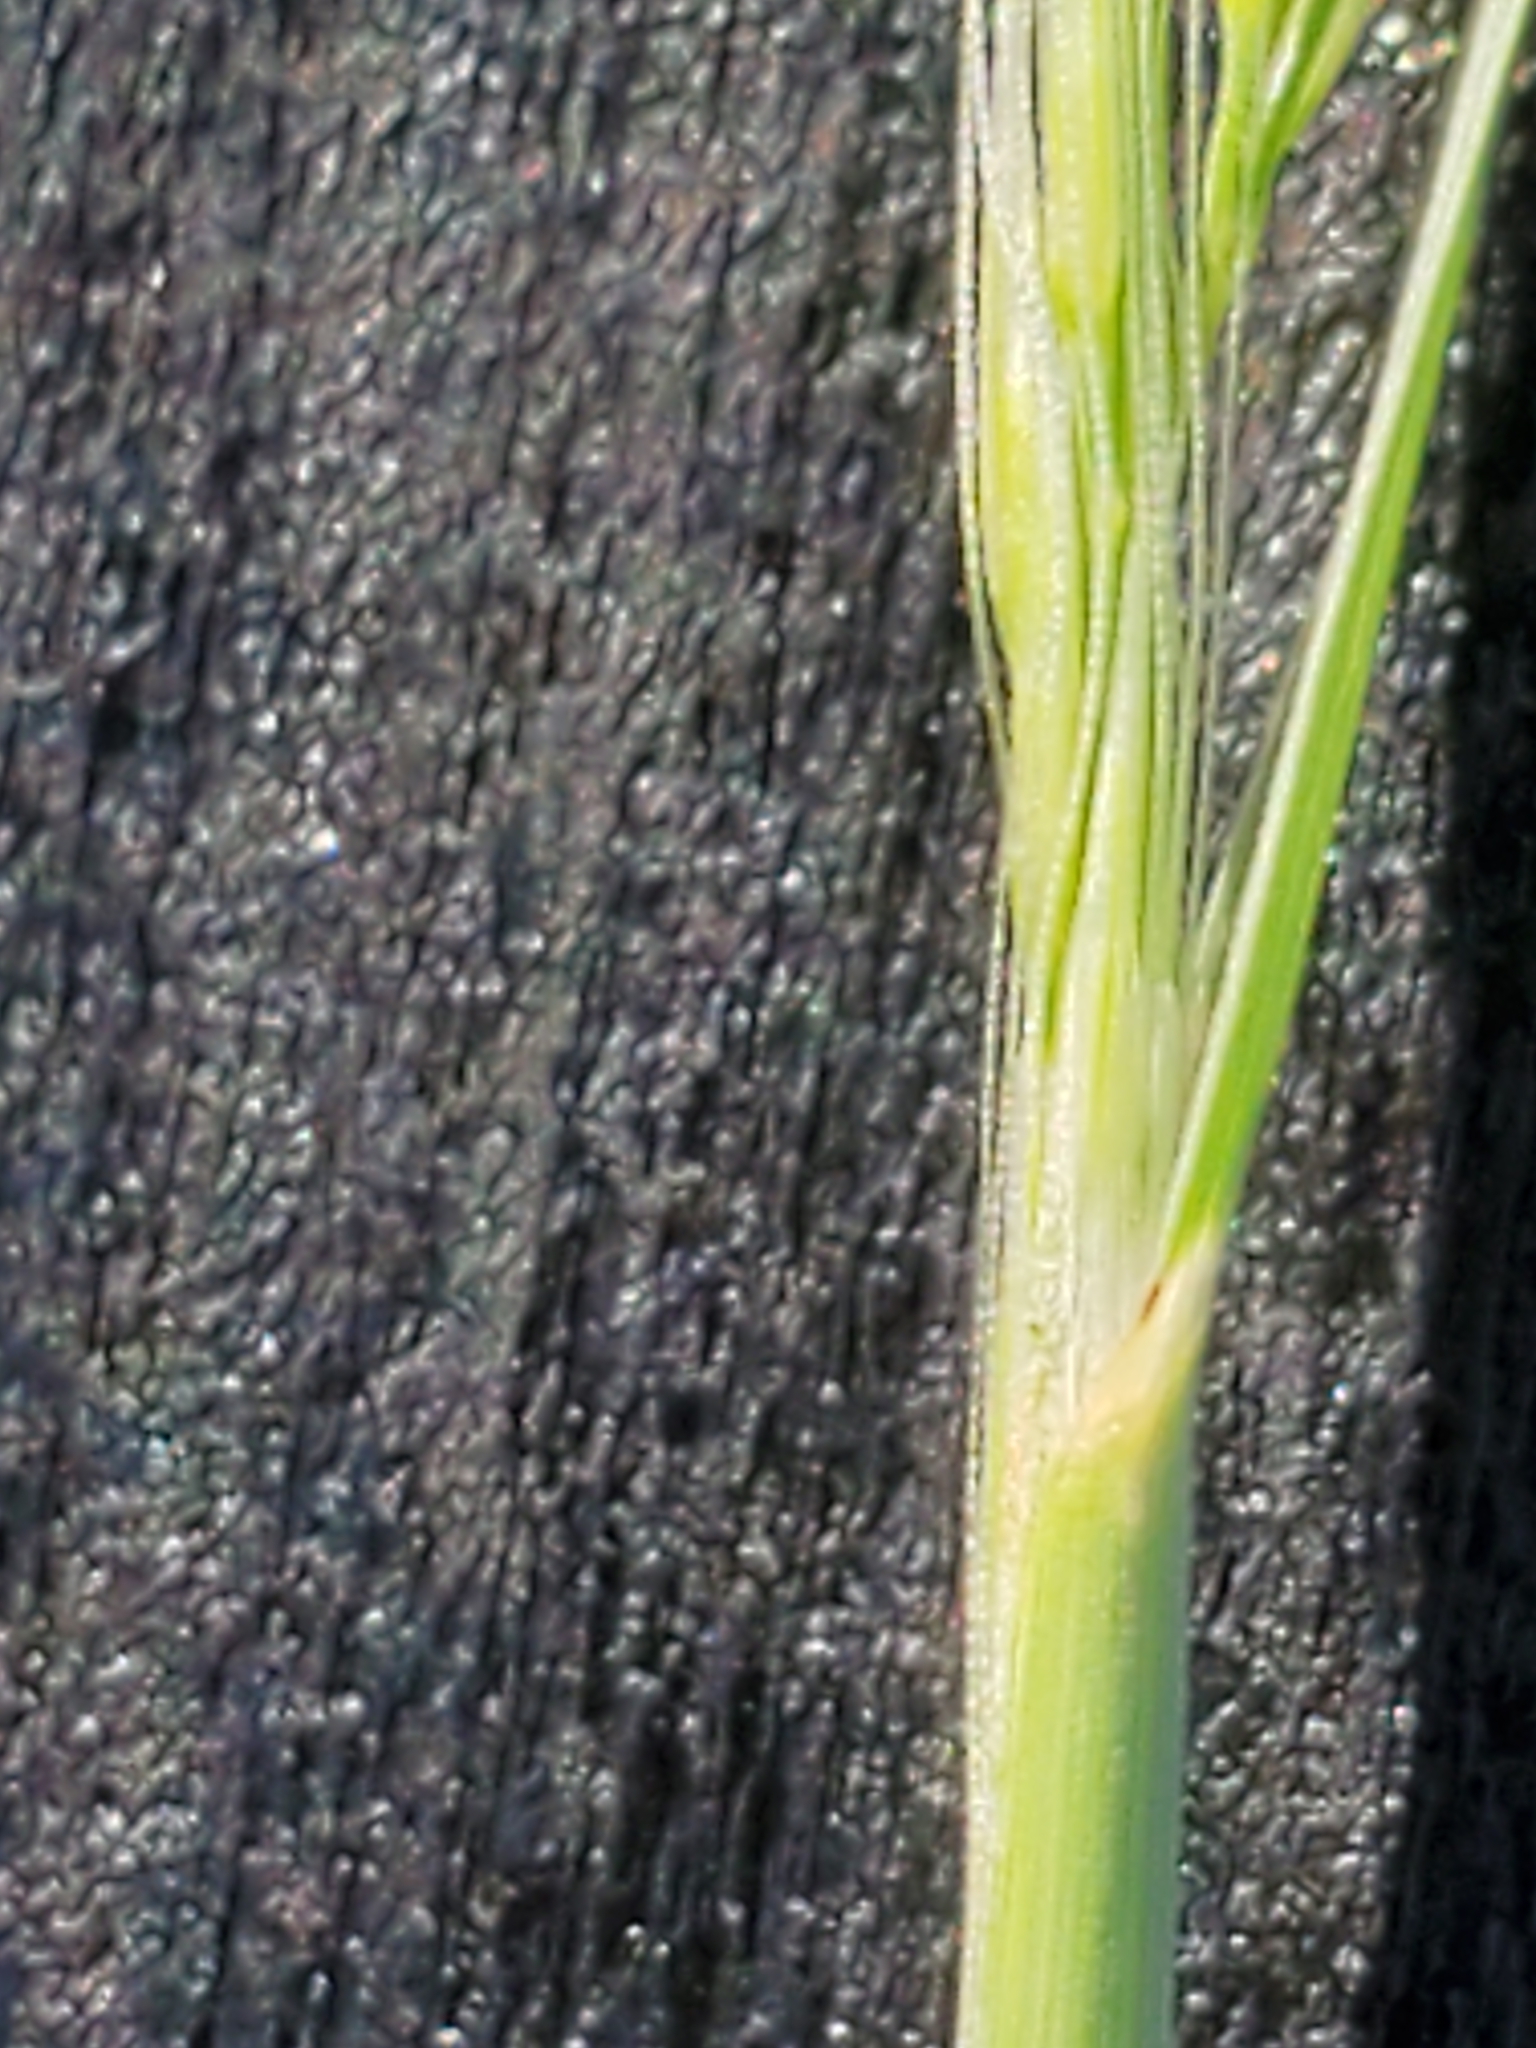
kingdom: Plantae
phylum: Tracheophyta
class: Liliopsida
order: Poales
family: Poaceae
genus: Muhlenbergia
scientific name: Muhlenbergia spiciformis
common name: Longawn muhly
